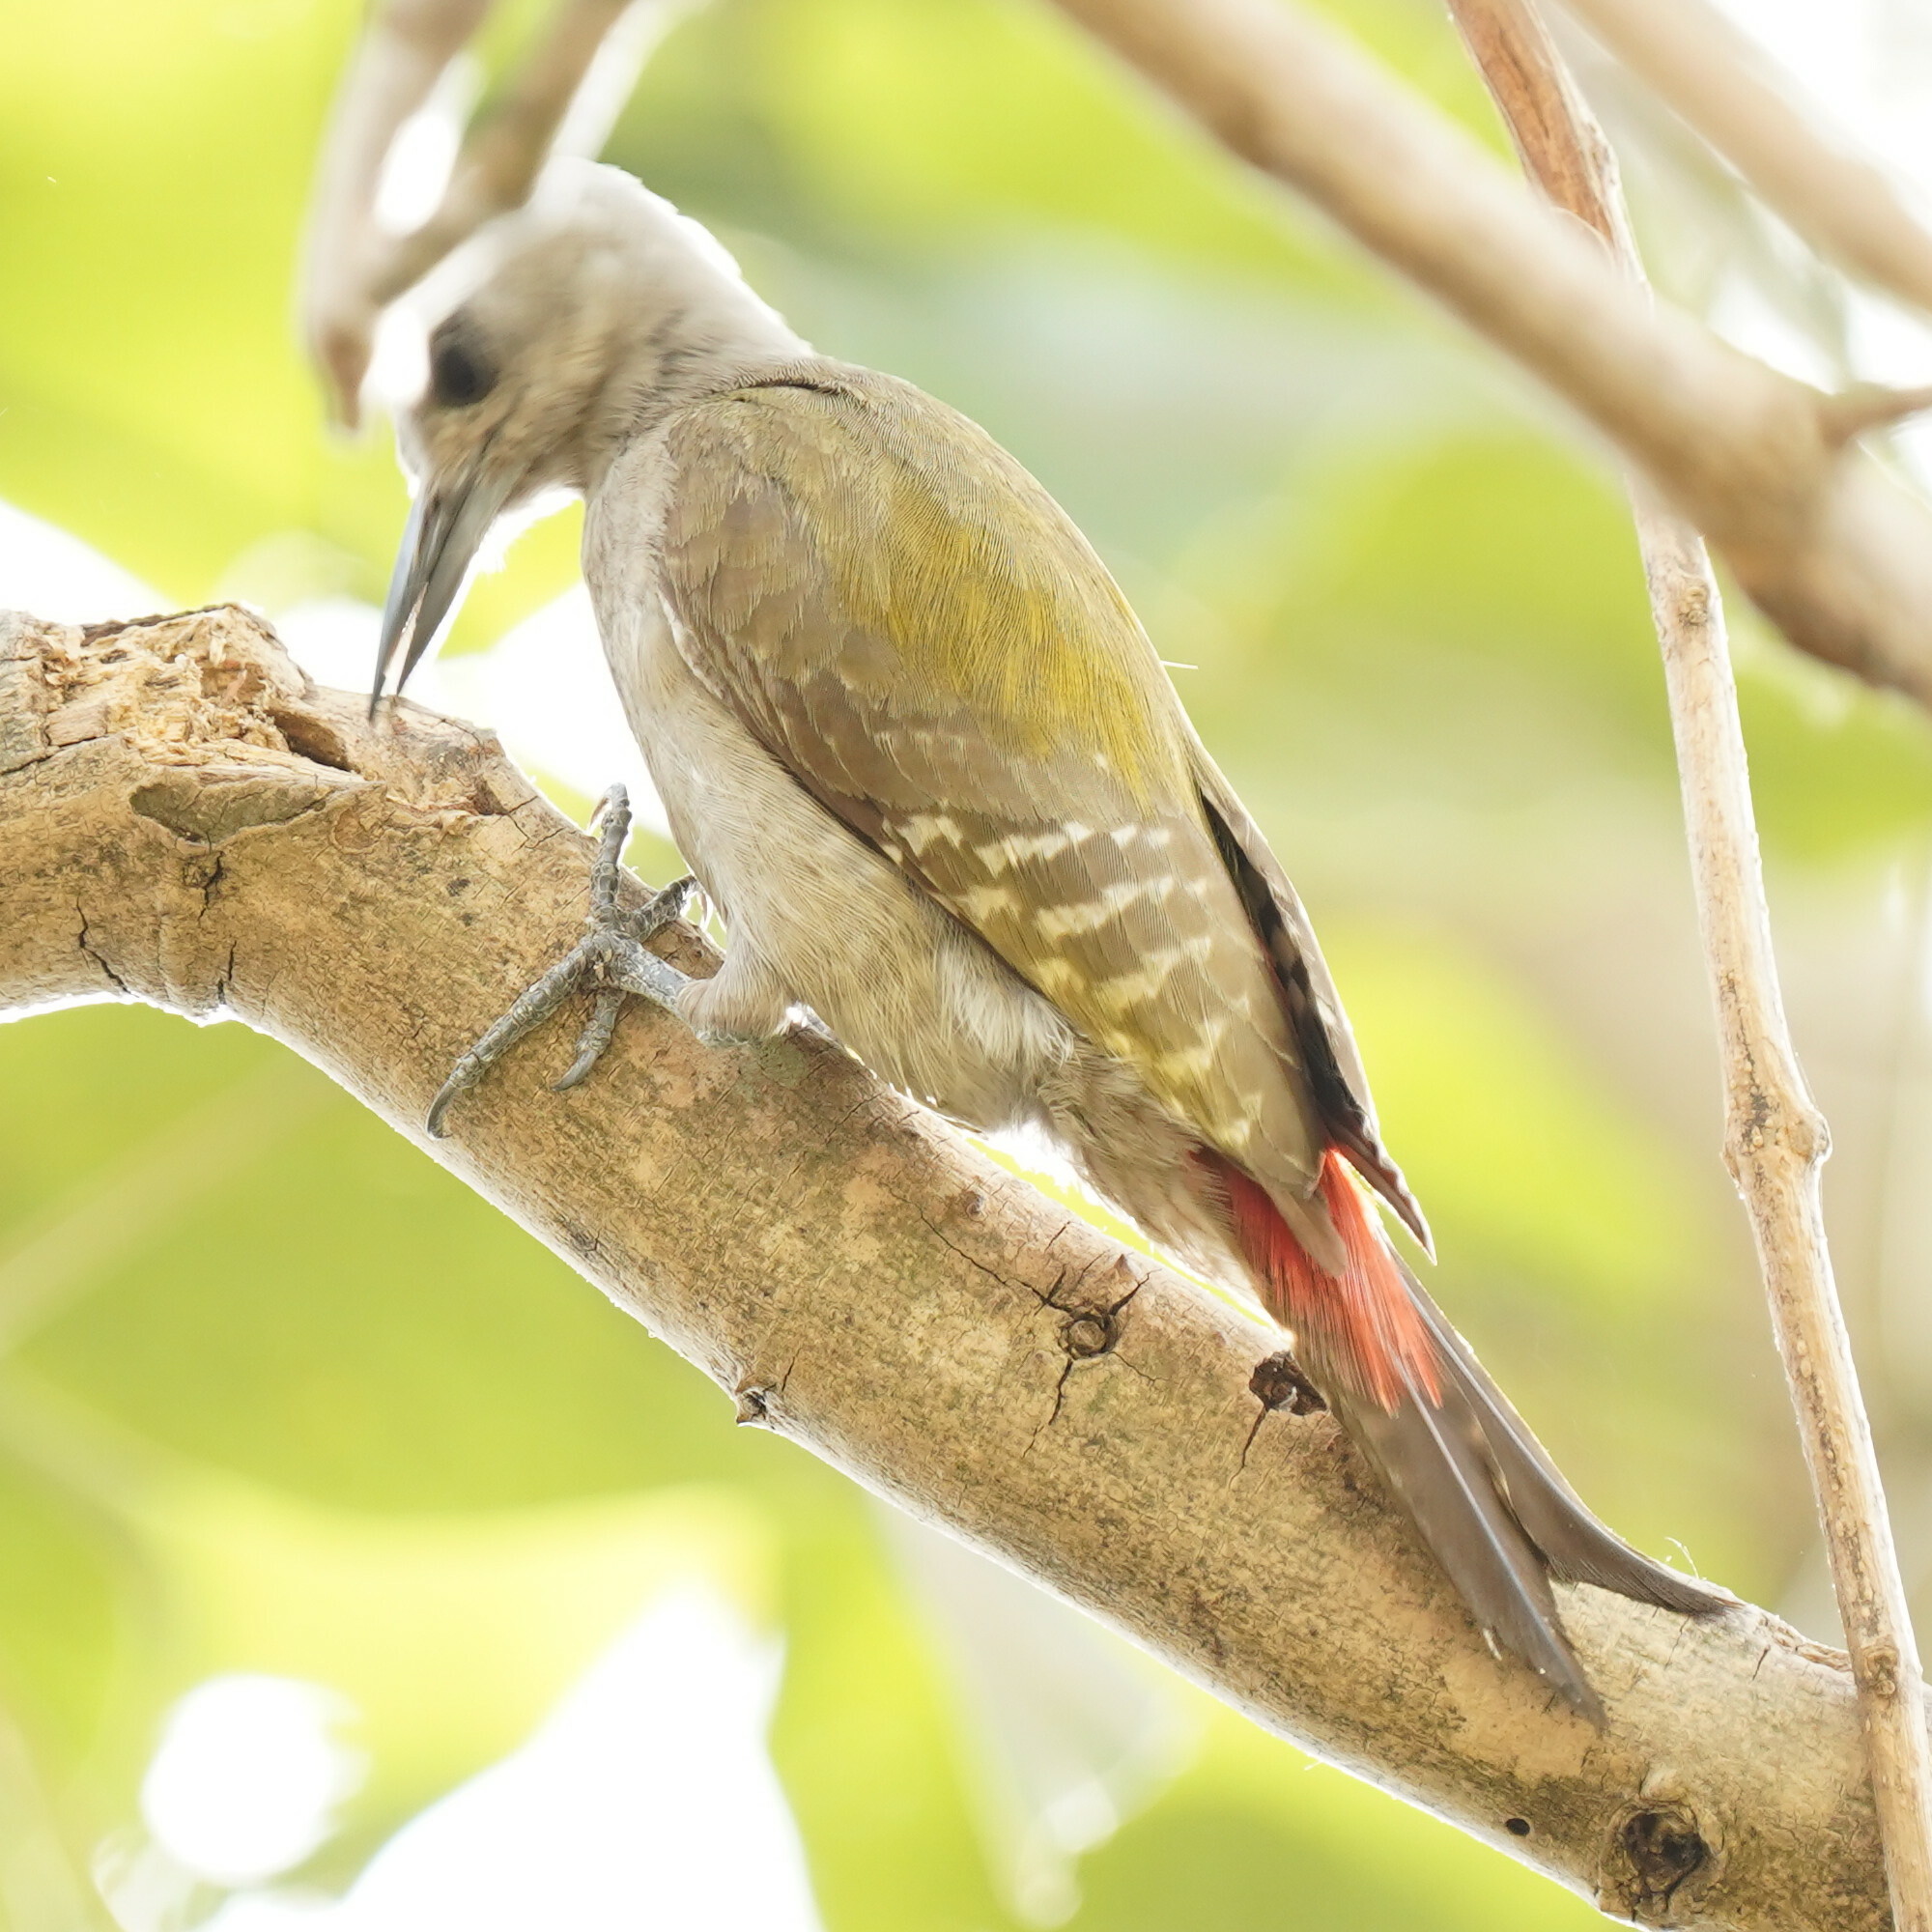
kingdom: Animalia
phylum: Chordata
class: Aves
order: Piciformes
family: Picidae
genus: Dendropicos
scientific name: Dendropicos goertae
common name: African grey woodpecker
